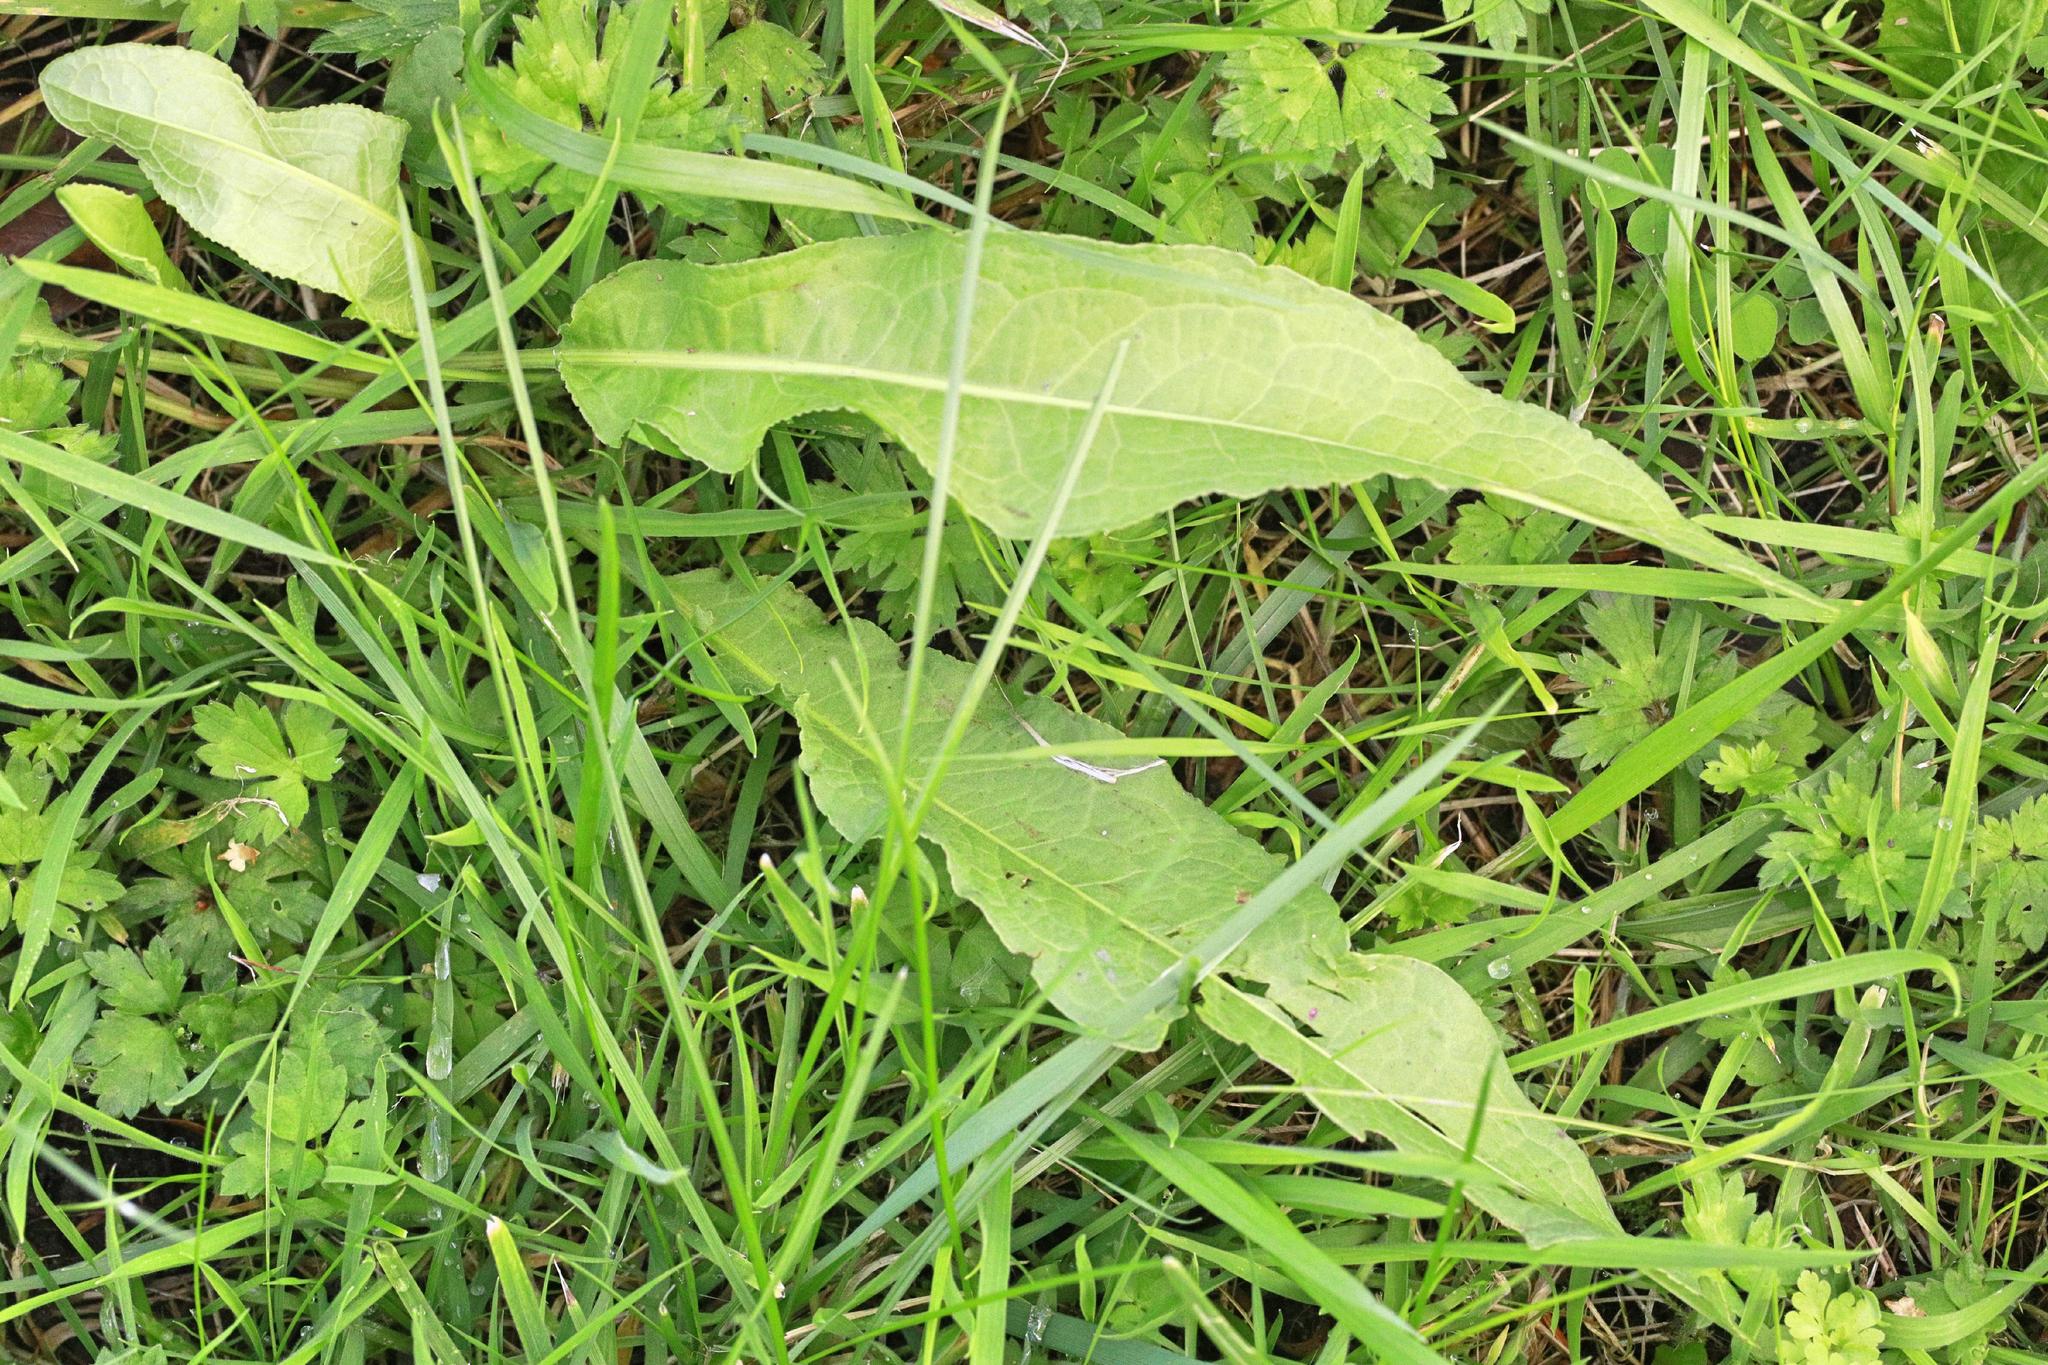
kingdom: Plantae
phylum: Tracheophyta
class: Magnoliopsida
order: Caryophyllales
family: Polygonaceae
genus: Rumex
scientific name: Rumex crispus
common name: Curled dock
